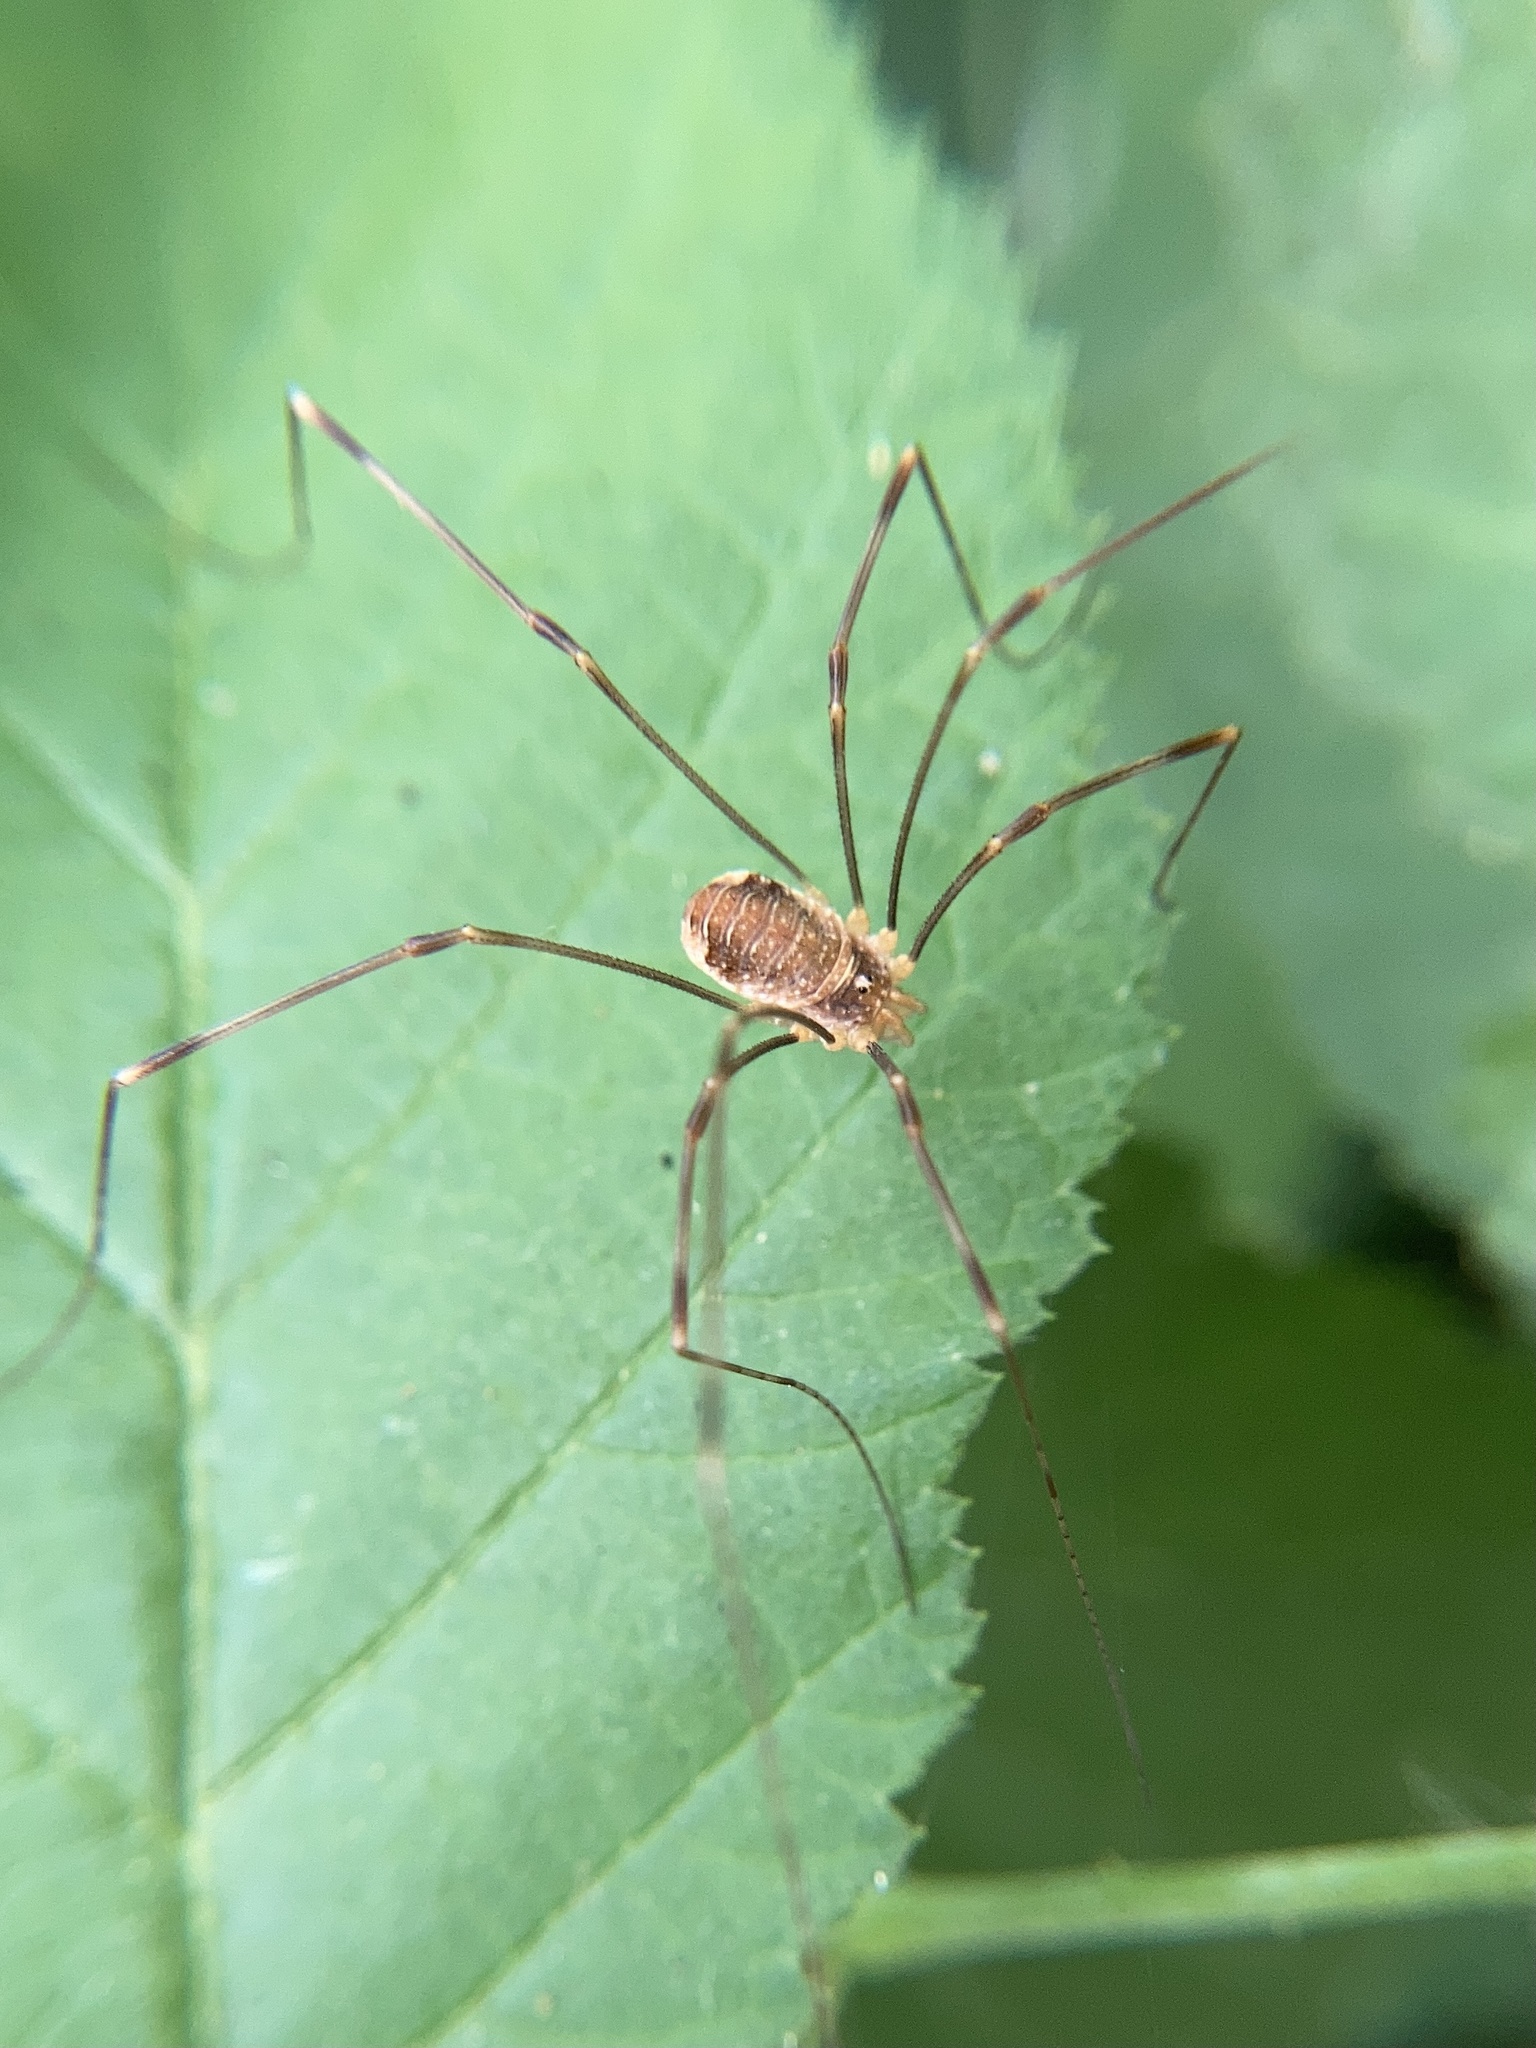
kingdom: Animalia
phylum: Arthropoda
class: Arachnida
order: Opiliones
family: Phalangiidae
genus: Opilio
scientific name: Opilio canestrinii
